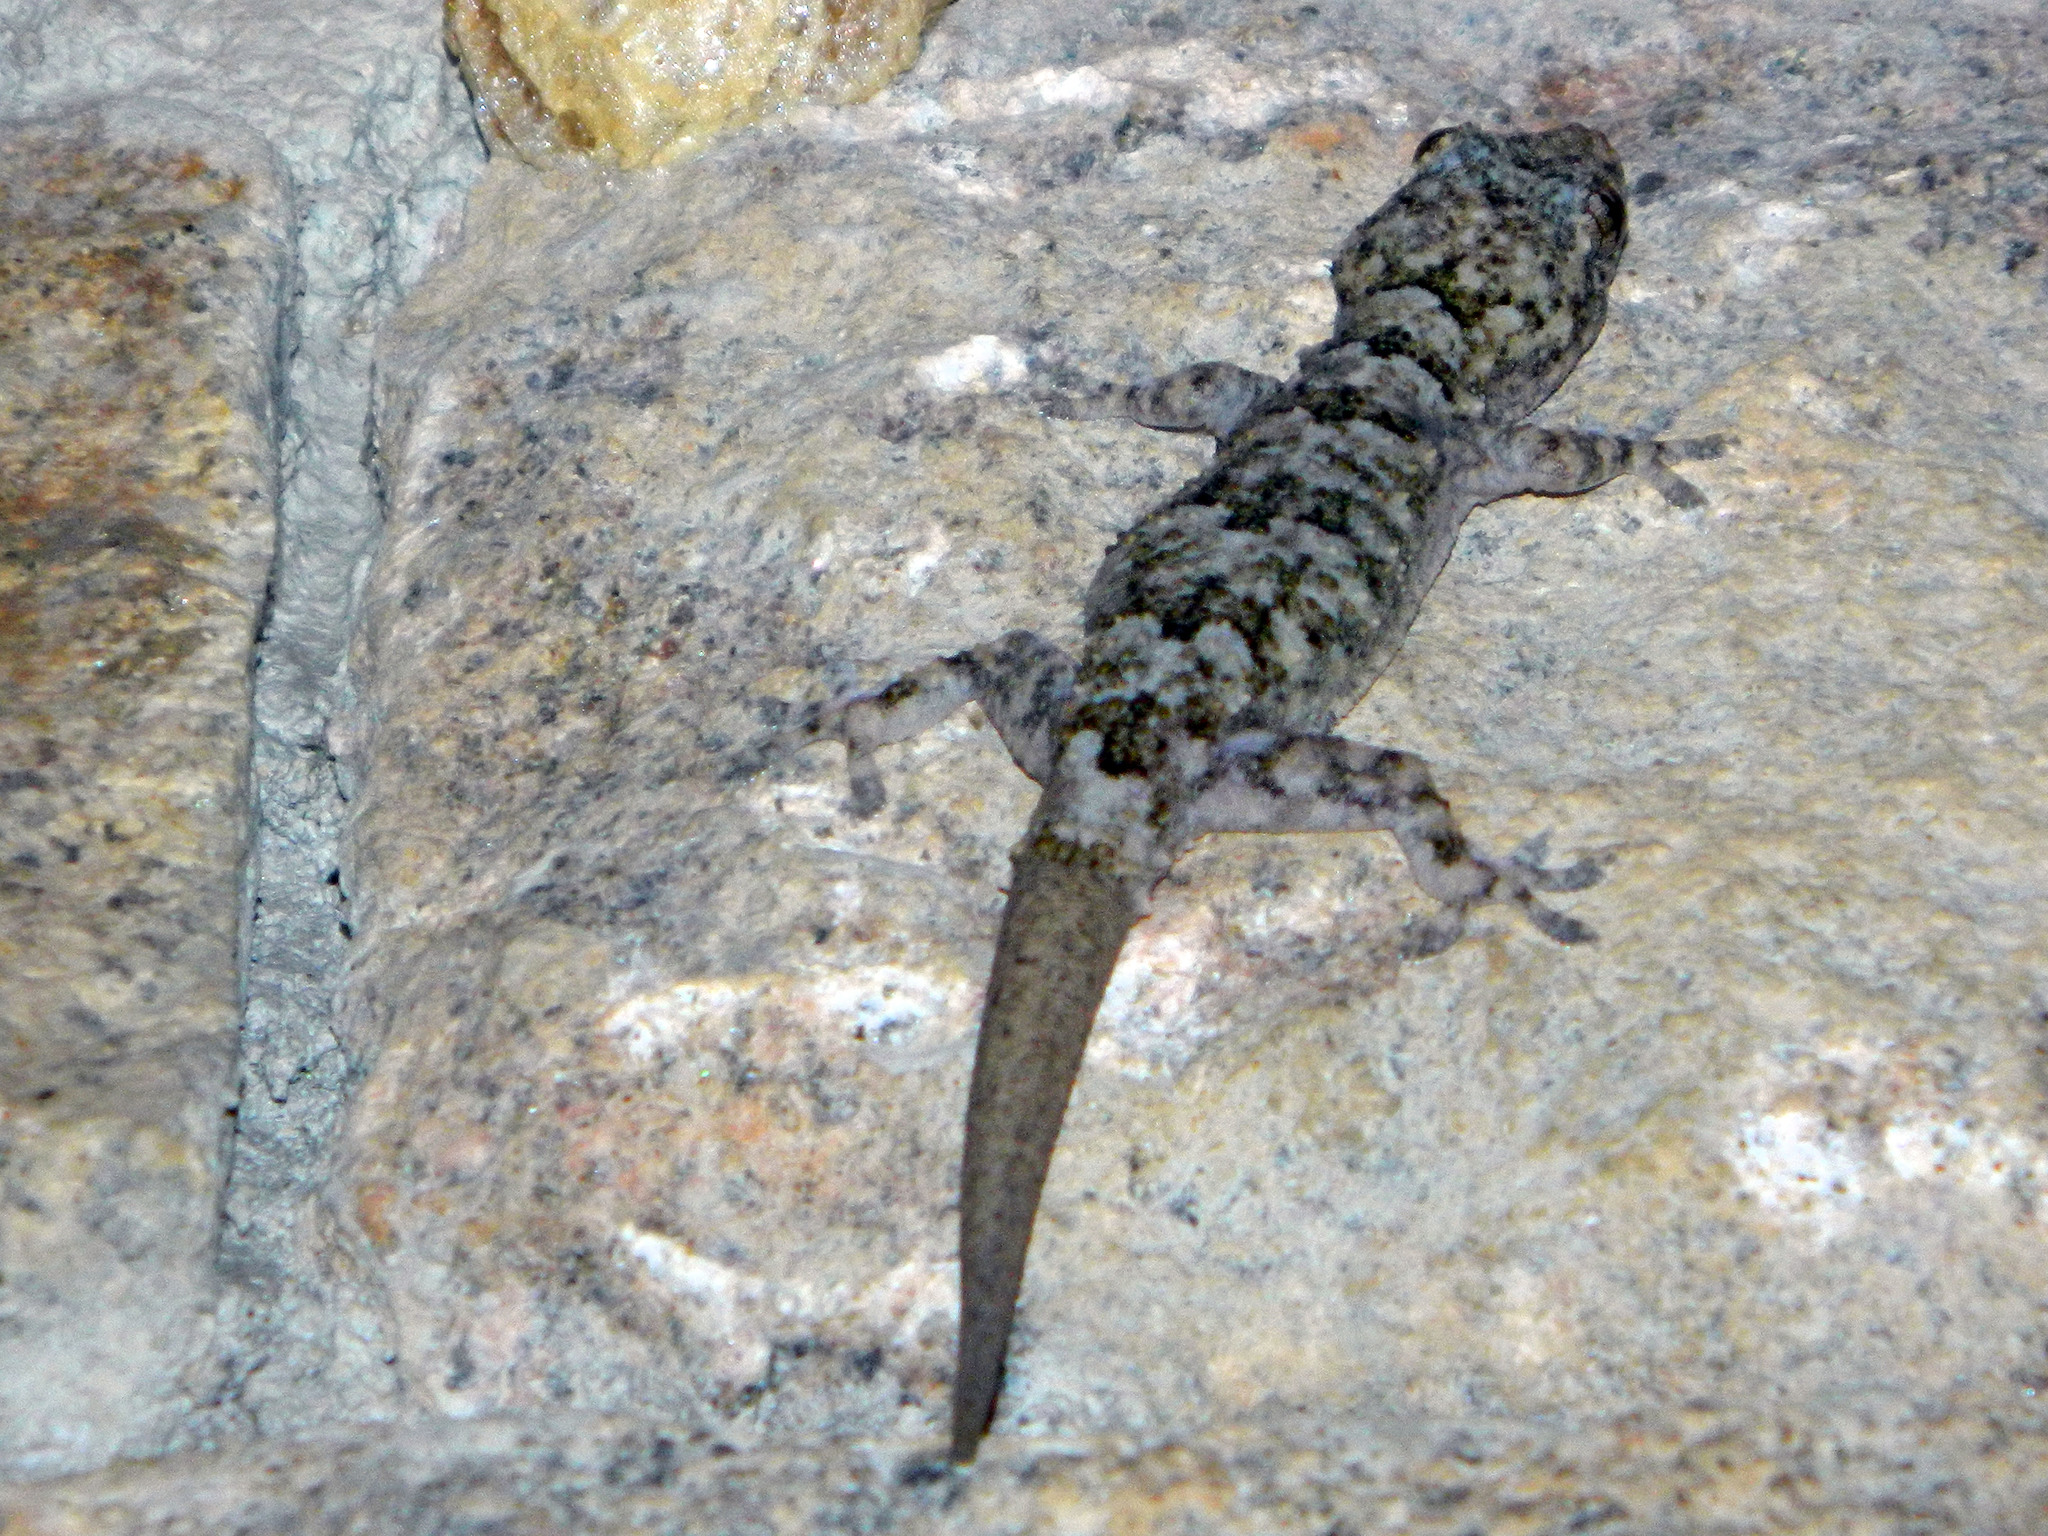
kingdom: Animalia
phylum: Chordata
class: Squamata
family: Gekkonidae
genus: Hemidactylus
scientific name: Hemidactylus mercatorius
